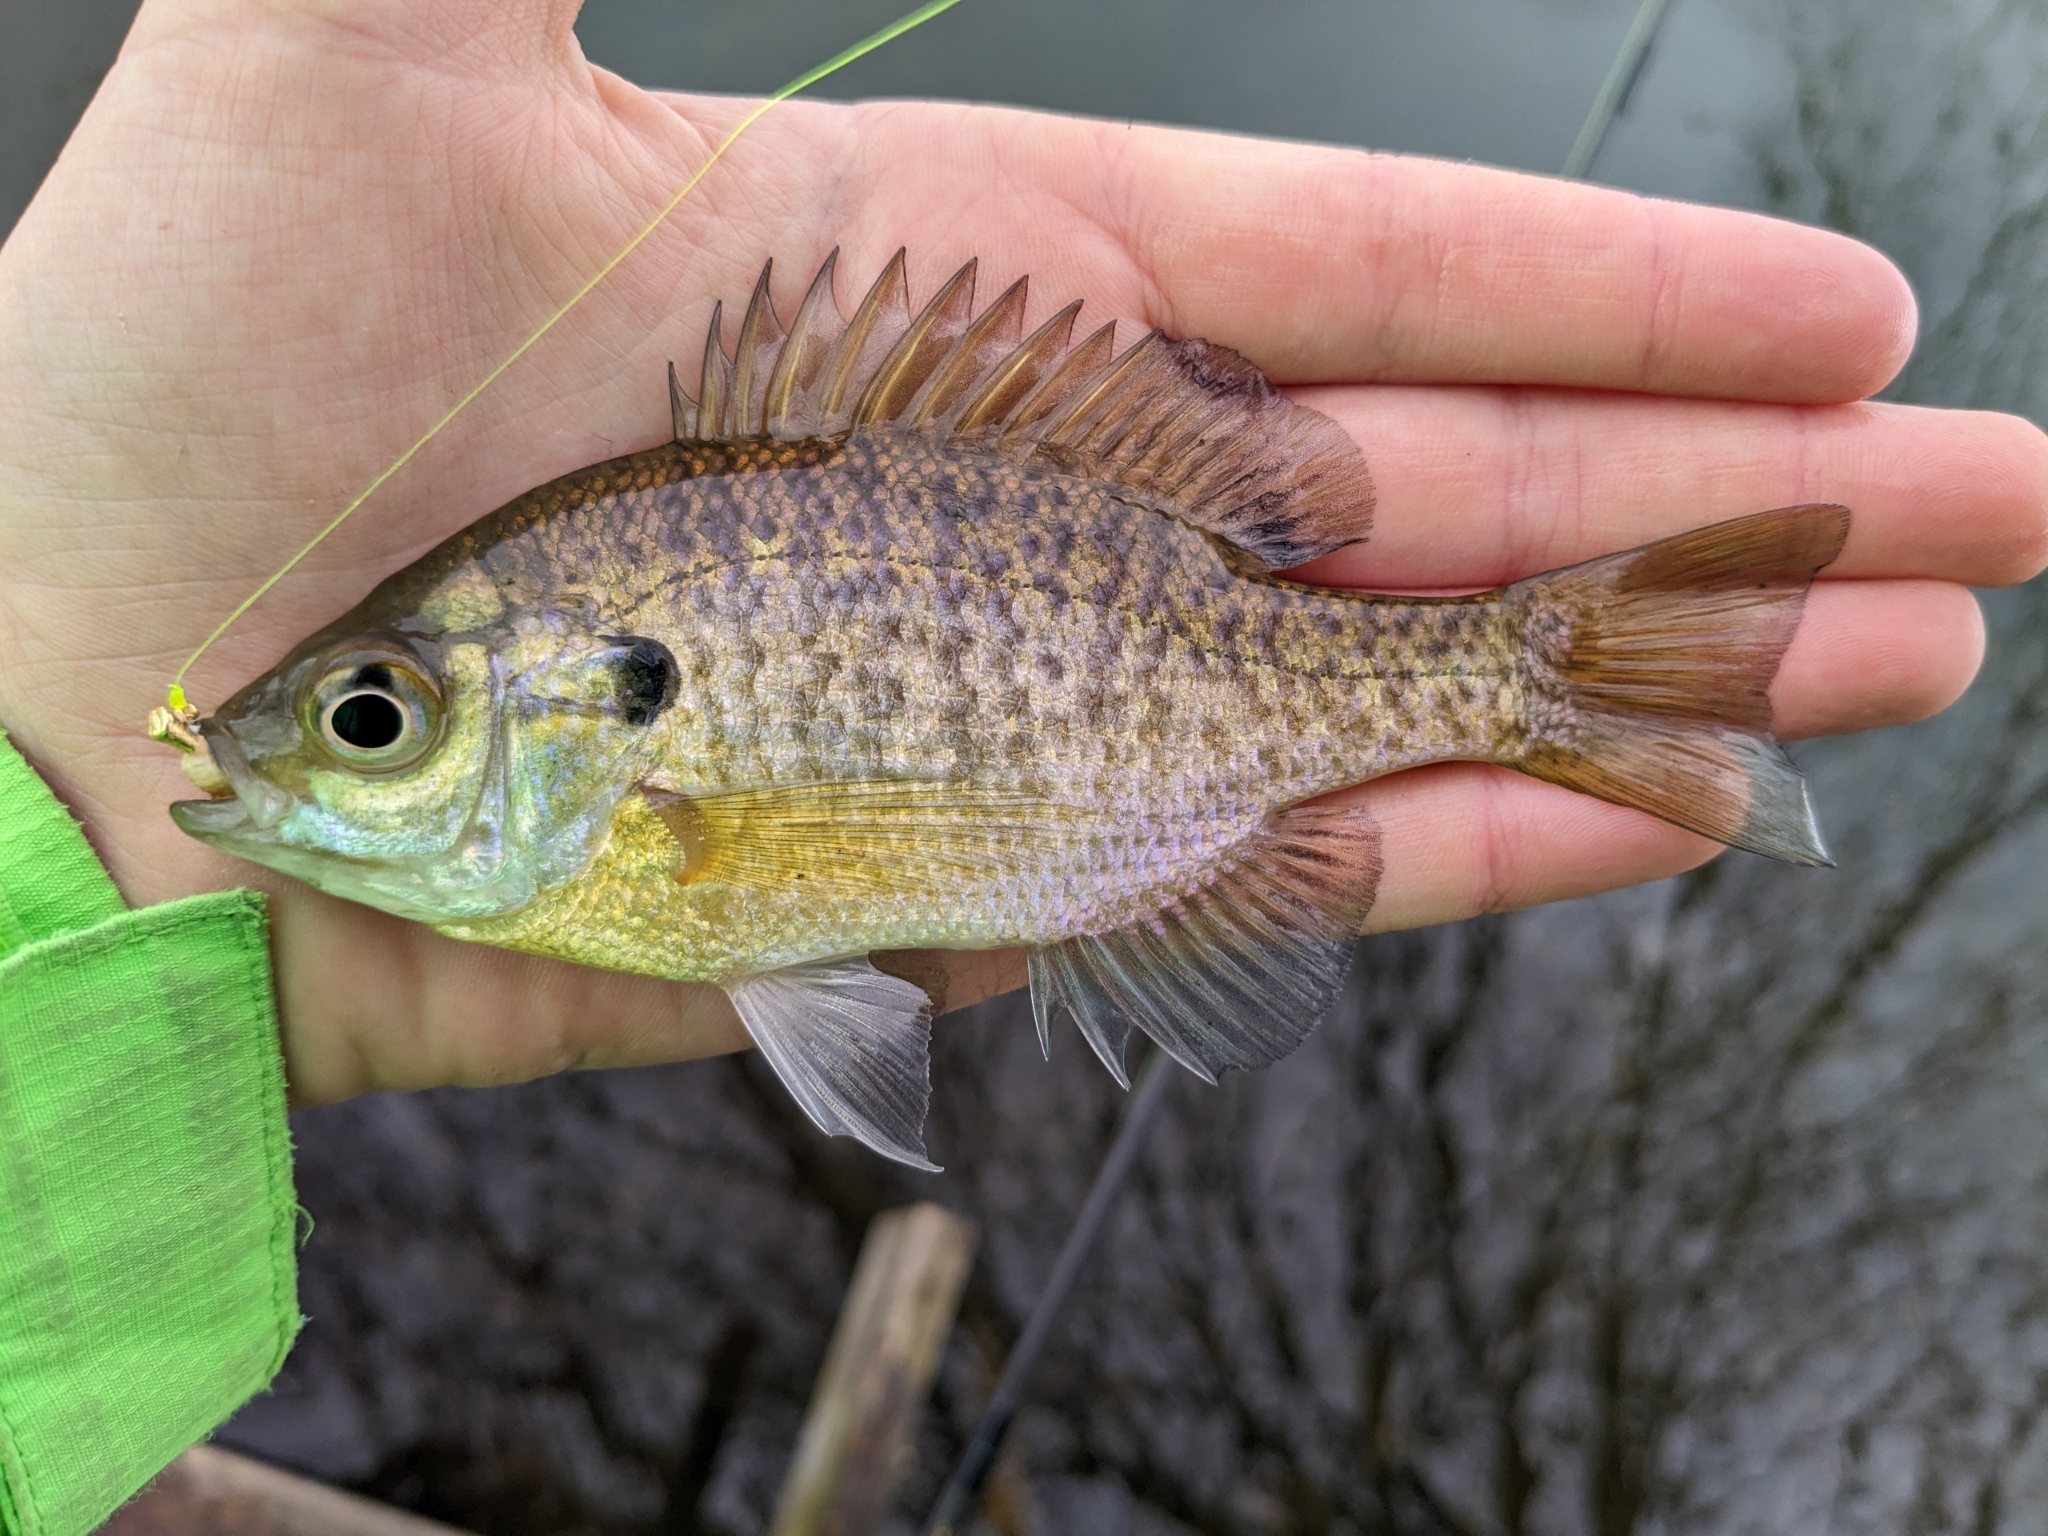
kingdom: Animalia
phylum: Chordata
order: Perciformes
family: Centrarchidae
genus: Lepomis
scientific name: Lepomis macrochirus
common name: Bluegill
